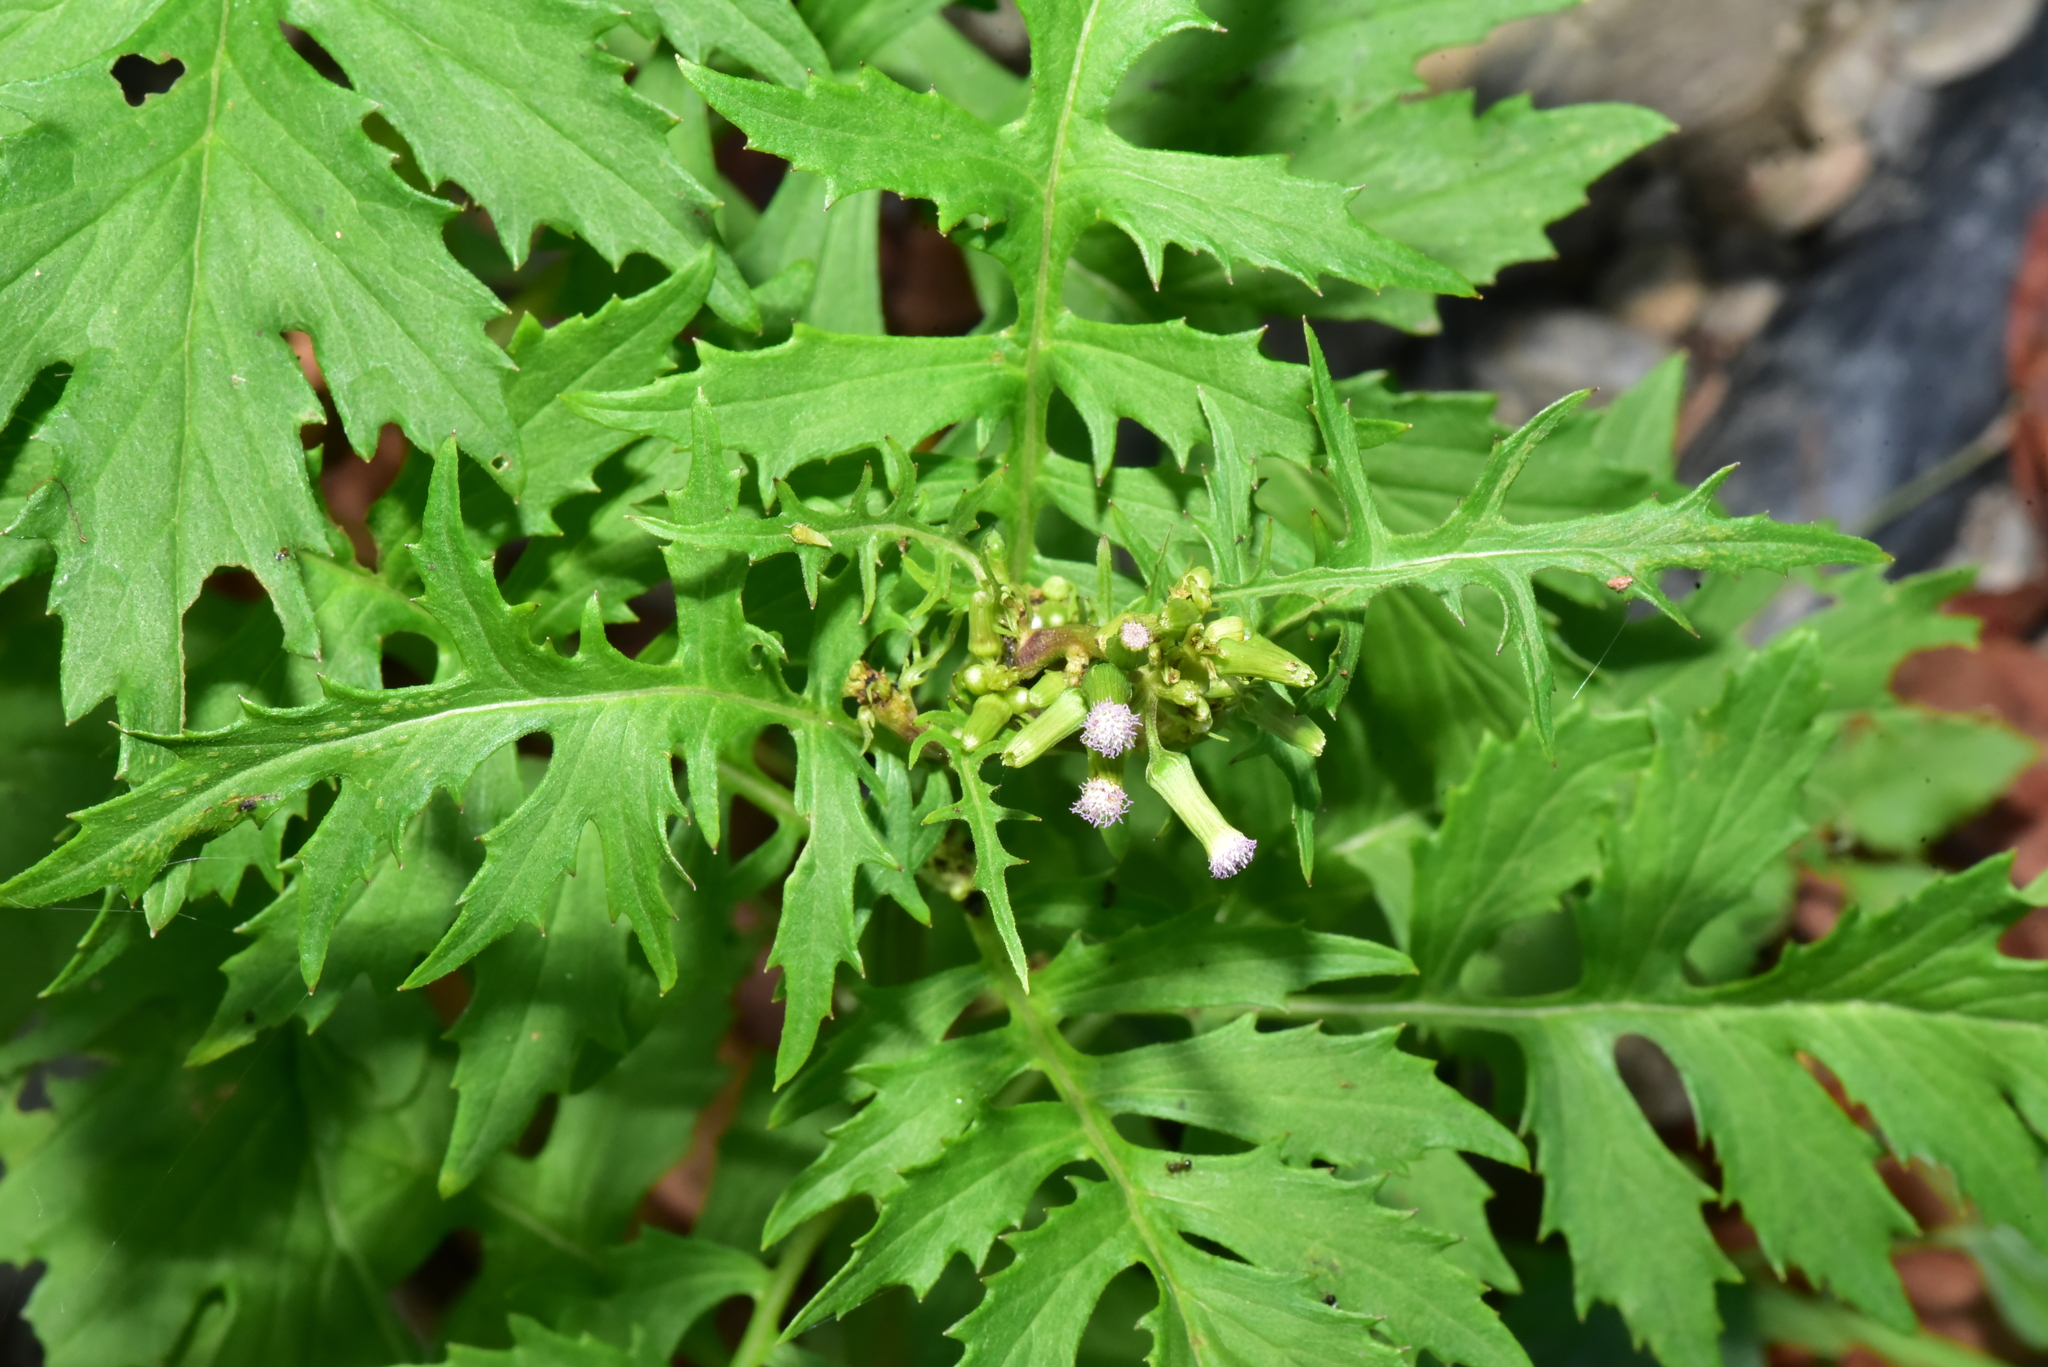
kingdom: Plantae
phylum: Tracheophyta
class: Magnoliopsida
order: Asterales
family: Asteraceae
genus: Erechtites
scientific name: Erechtites valerianifolius
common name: Tropical burnweed
